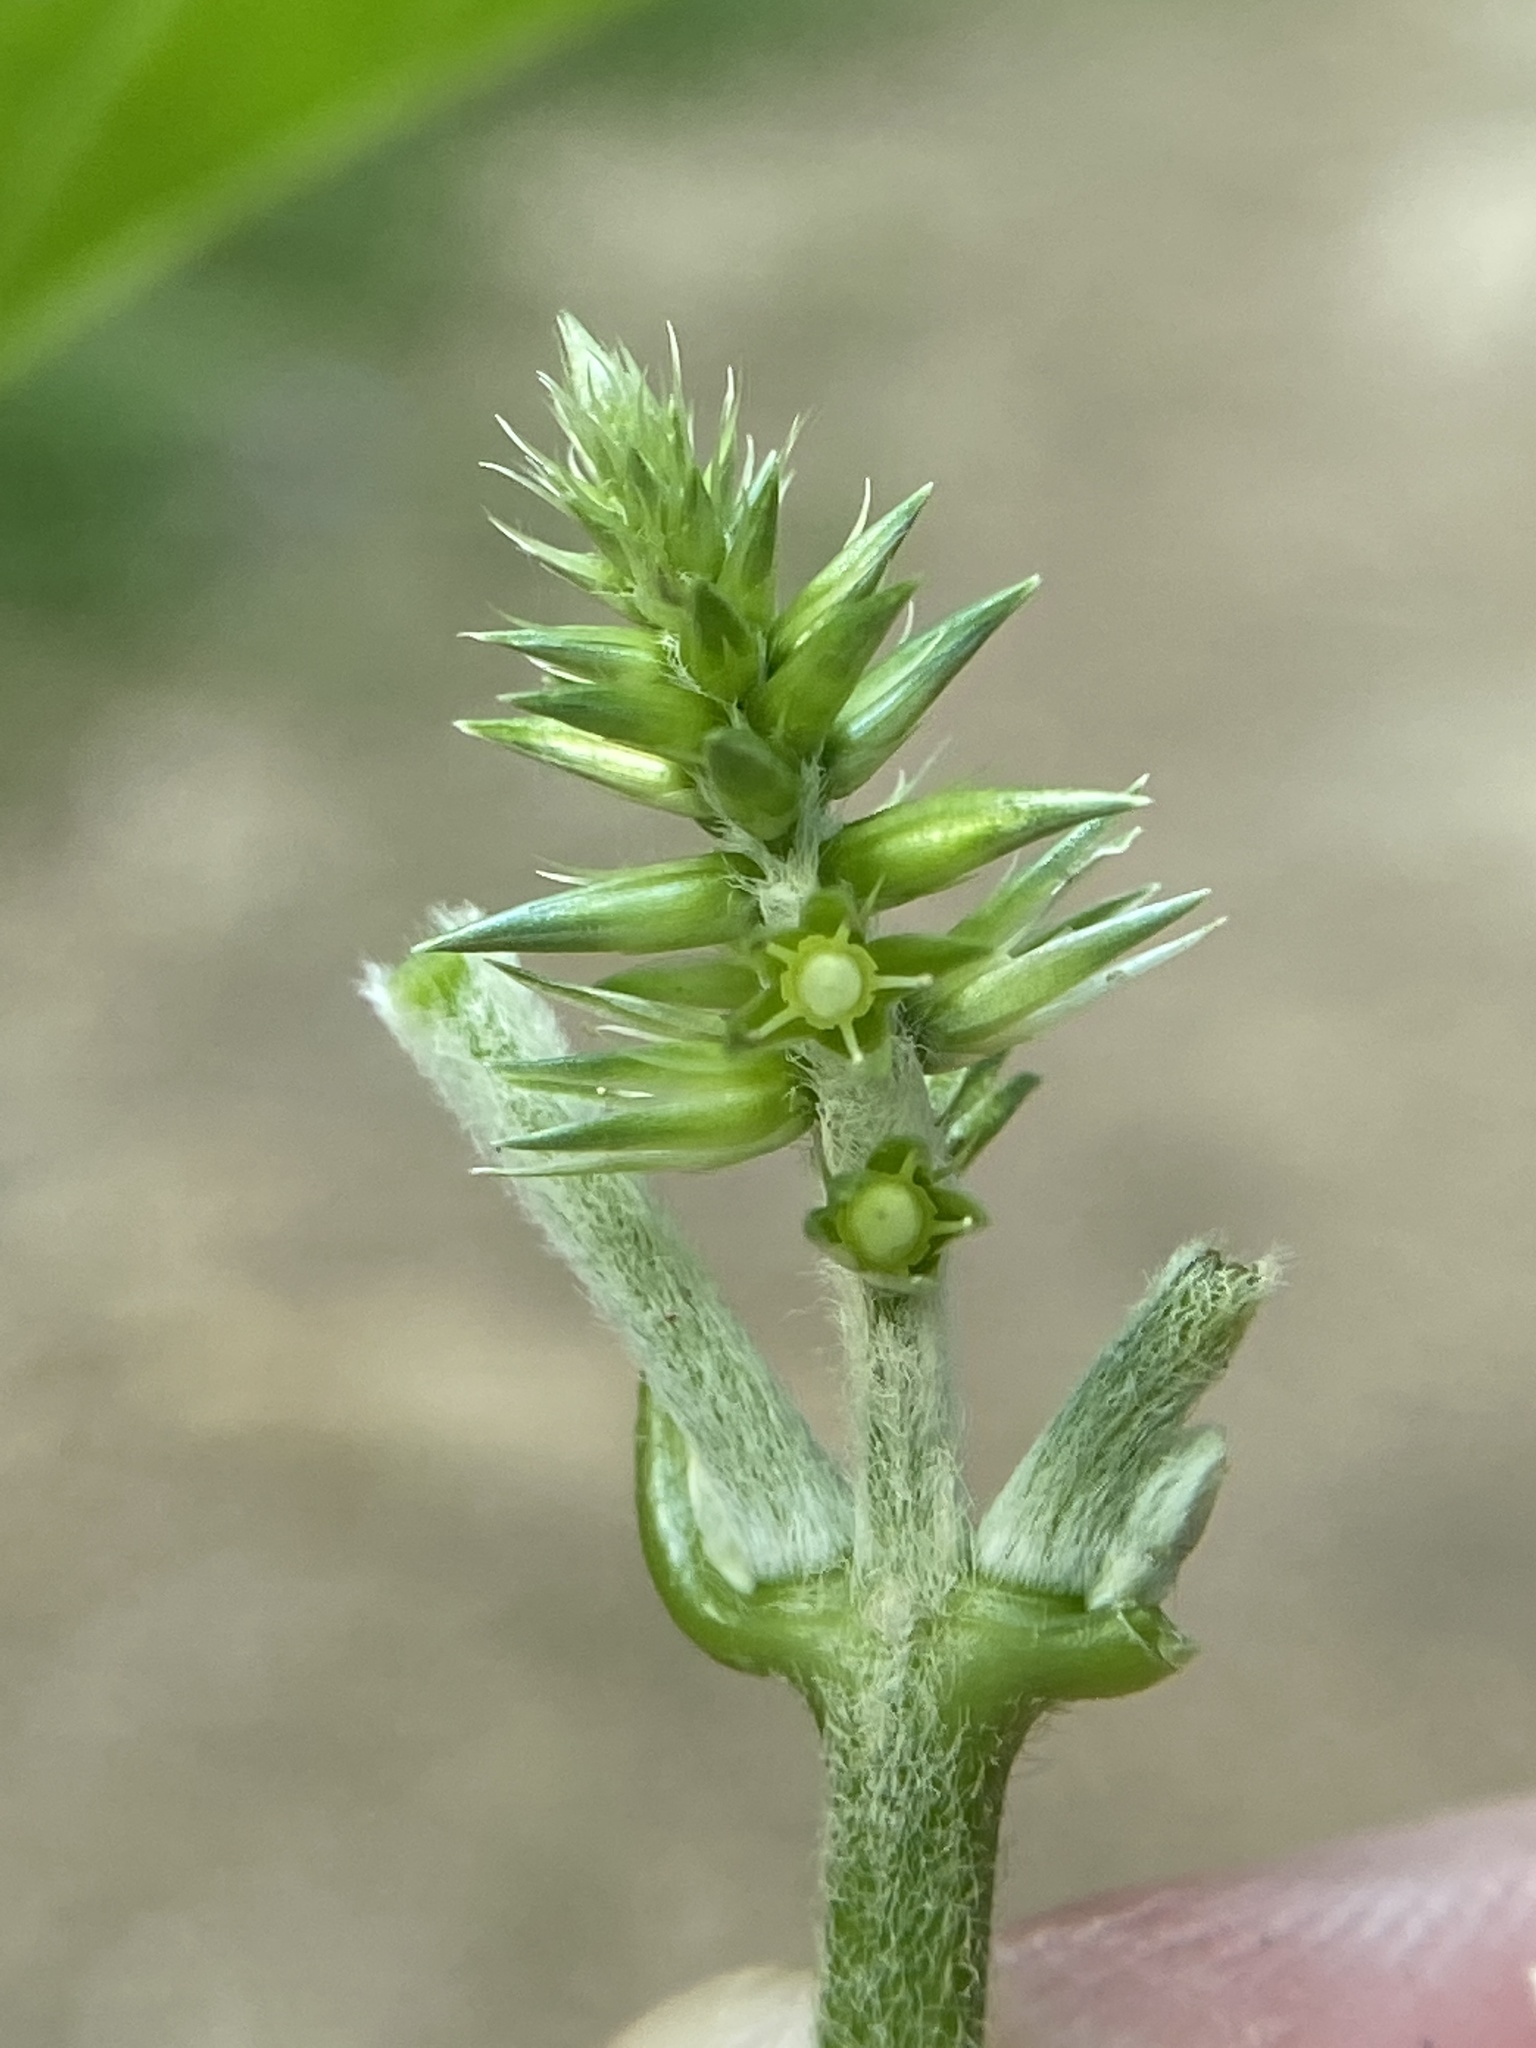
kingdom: Plantae
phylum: Tracheophyta
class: Magnoliopsida
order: Caryophyllales
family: Amaranthaceae
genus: Achyranthes
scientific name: Achyranthes bidentata
